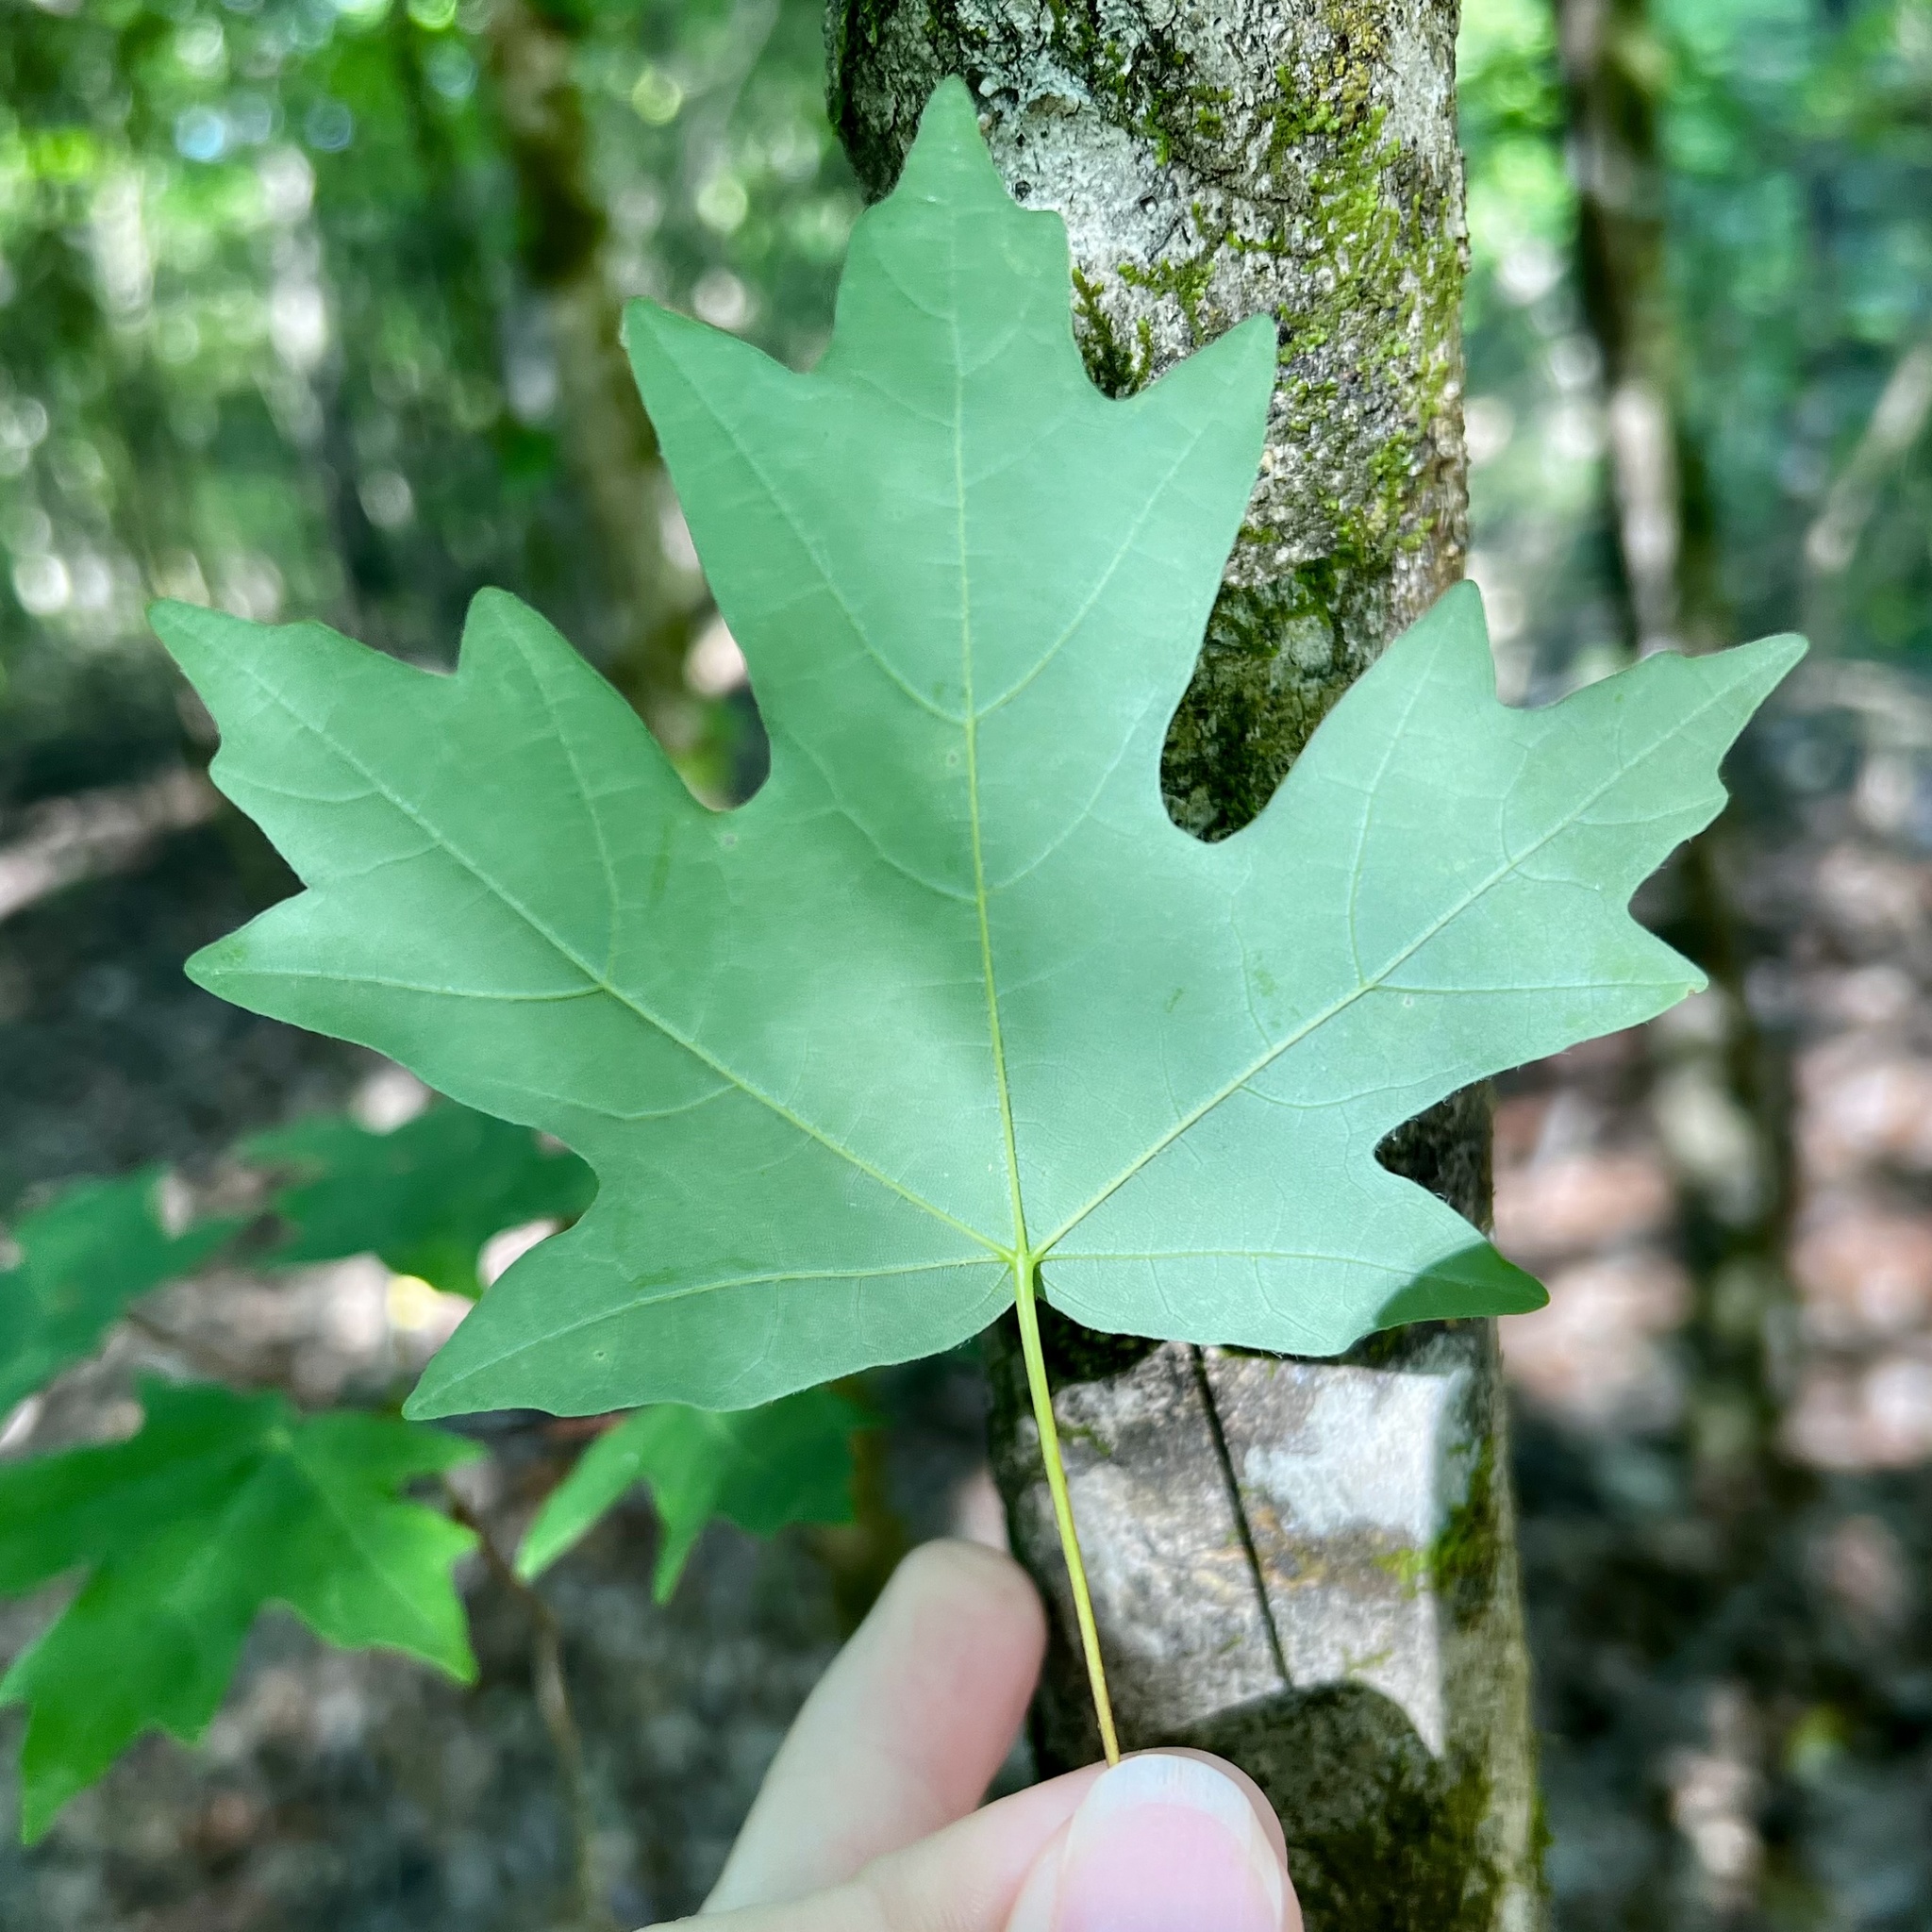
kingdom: Plantae
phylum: Tracheophyta
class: Magnoliopsida
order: Sapindales
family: Sapindaceae
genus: Acer
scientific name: Acer floridanum
